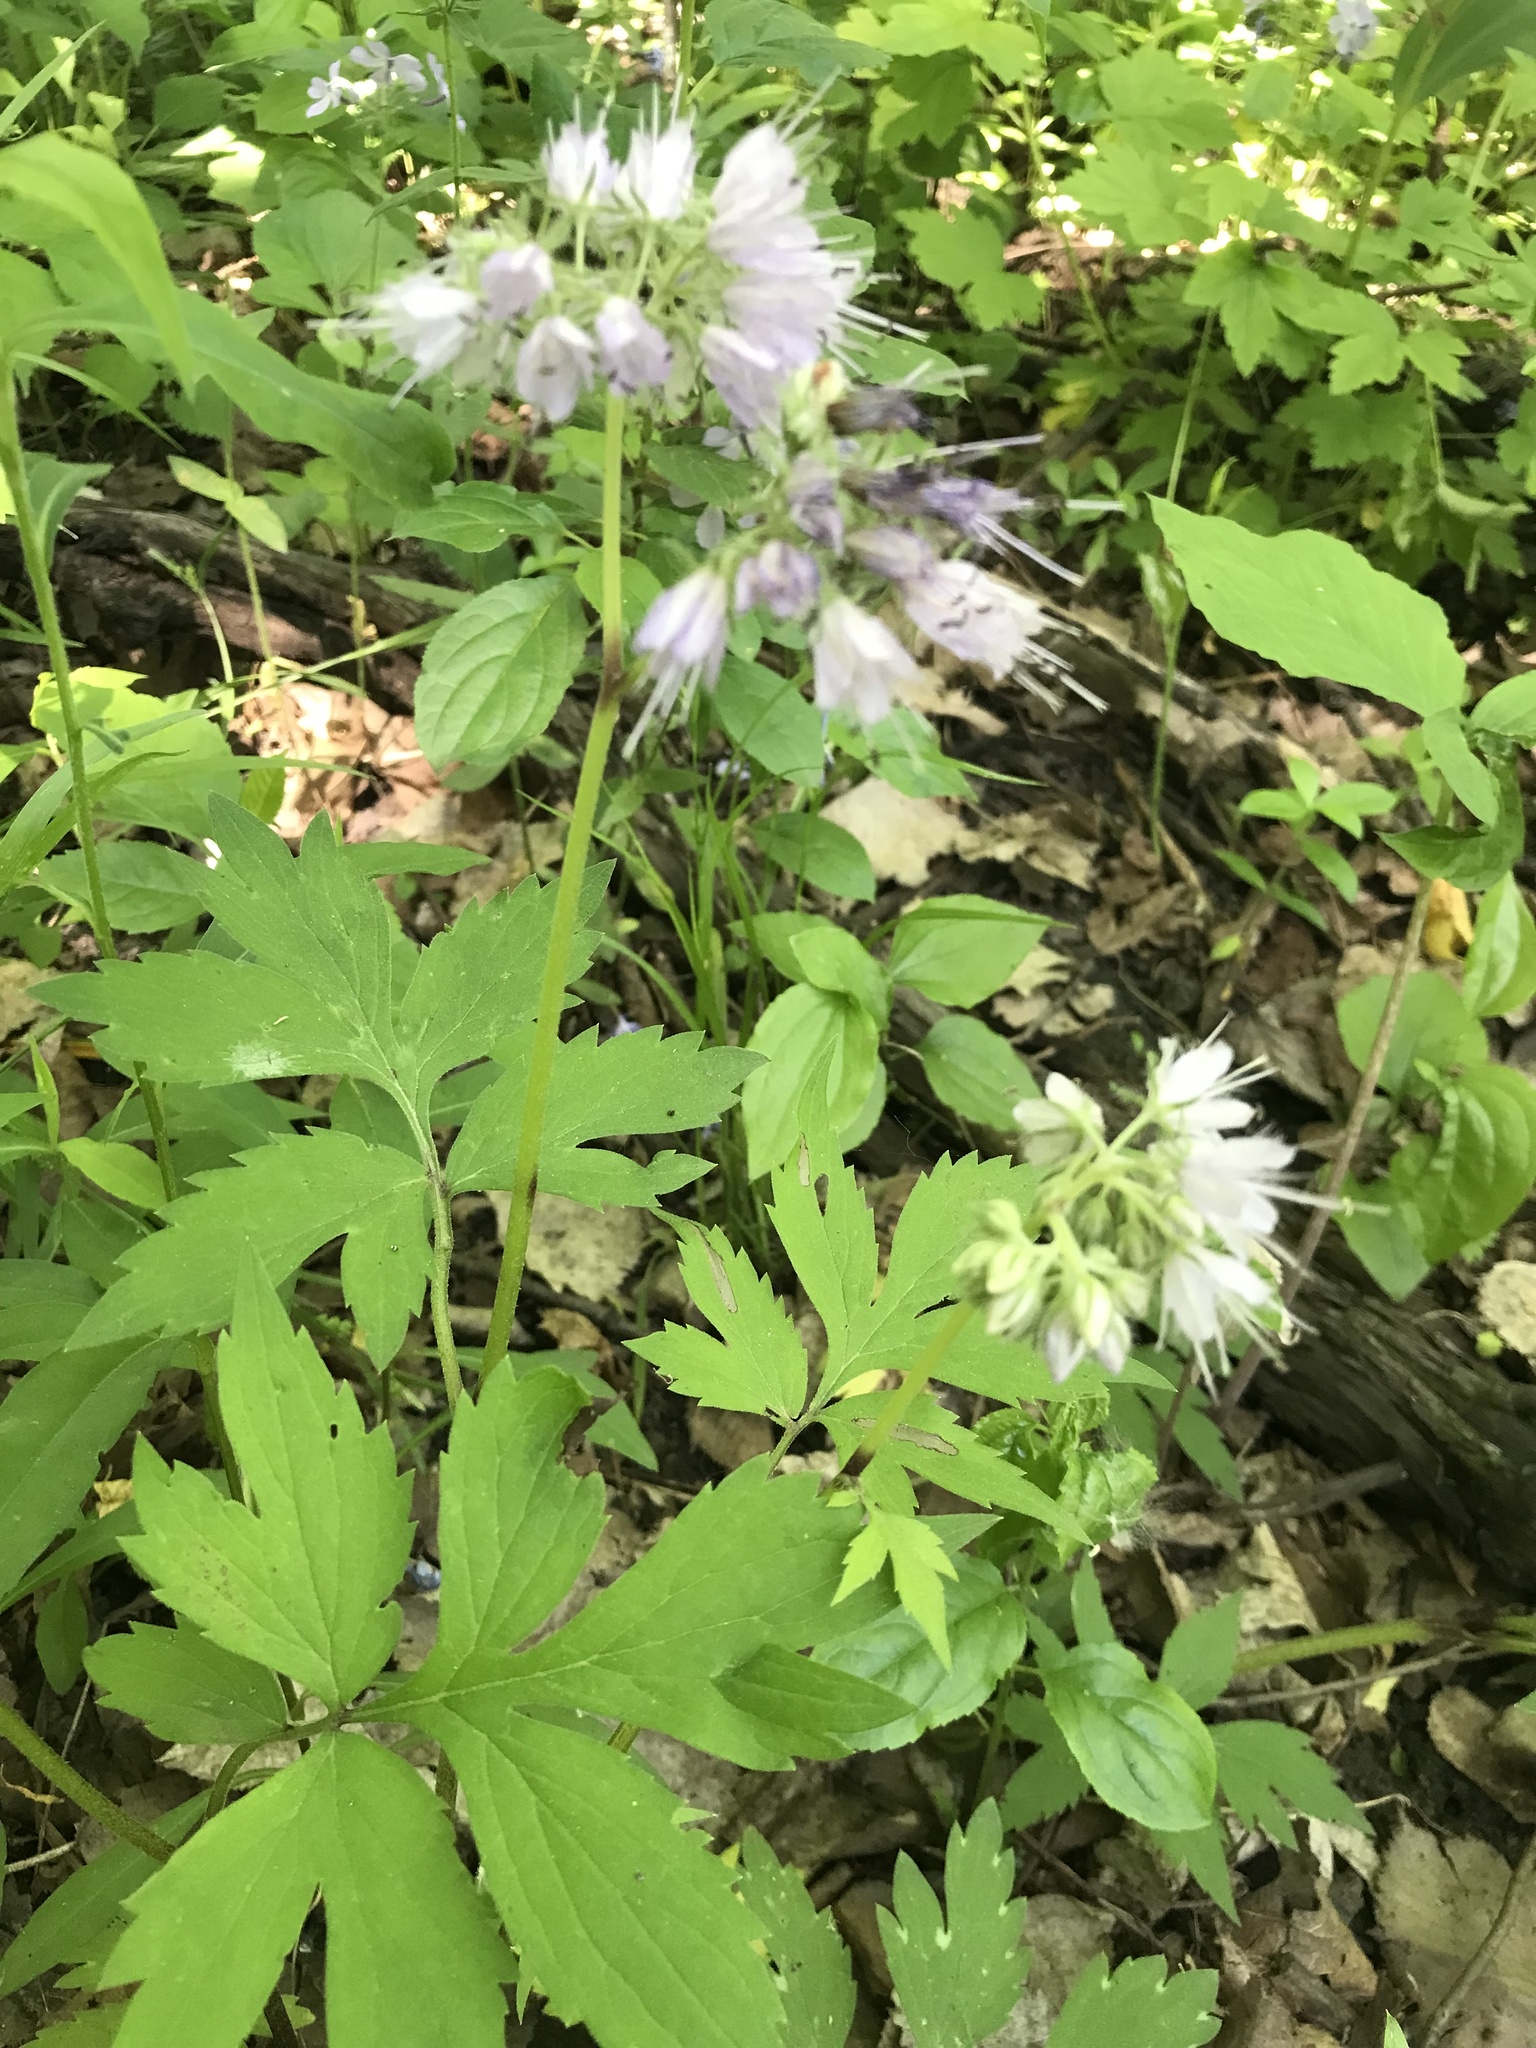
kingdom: Plantae
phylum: Tracheophyta
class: Magnoliopsida
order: Boraginales
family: Hydrophyllaceae
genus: Hydrophyllum
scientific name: Hydrophyllum virginianum
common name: Virginia waterleaf
